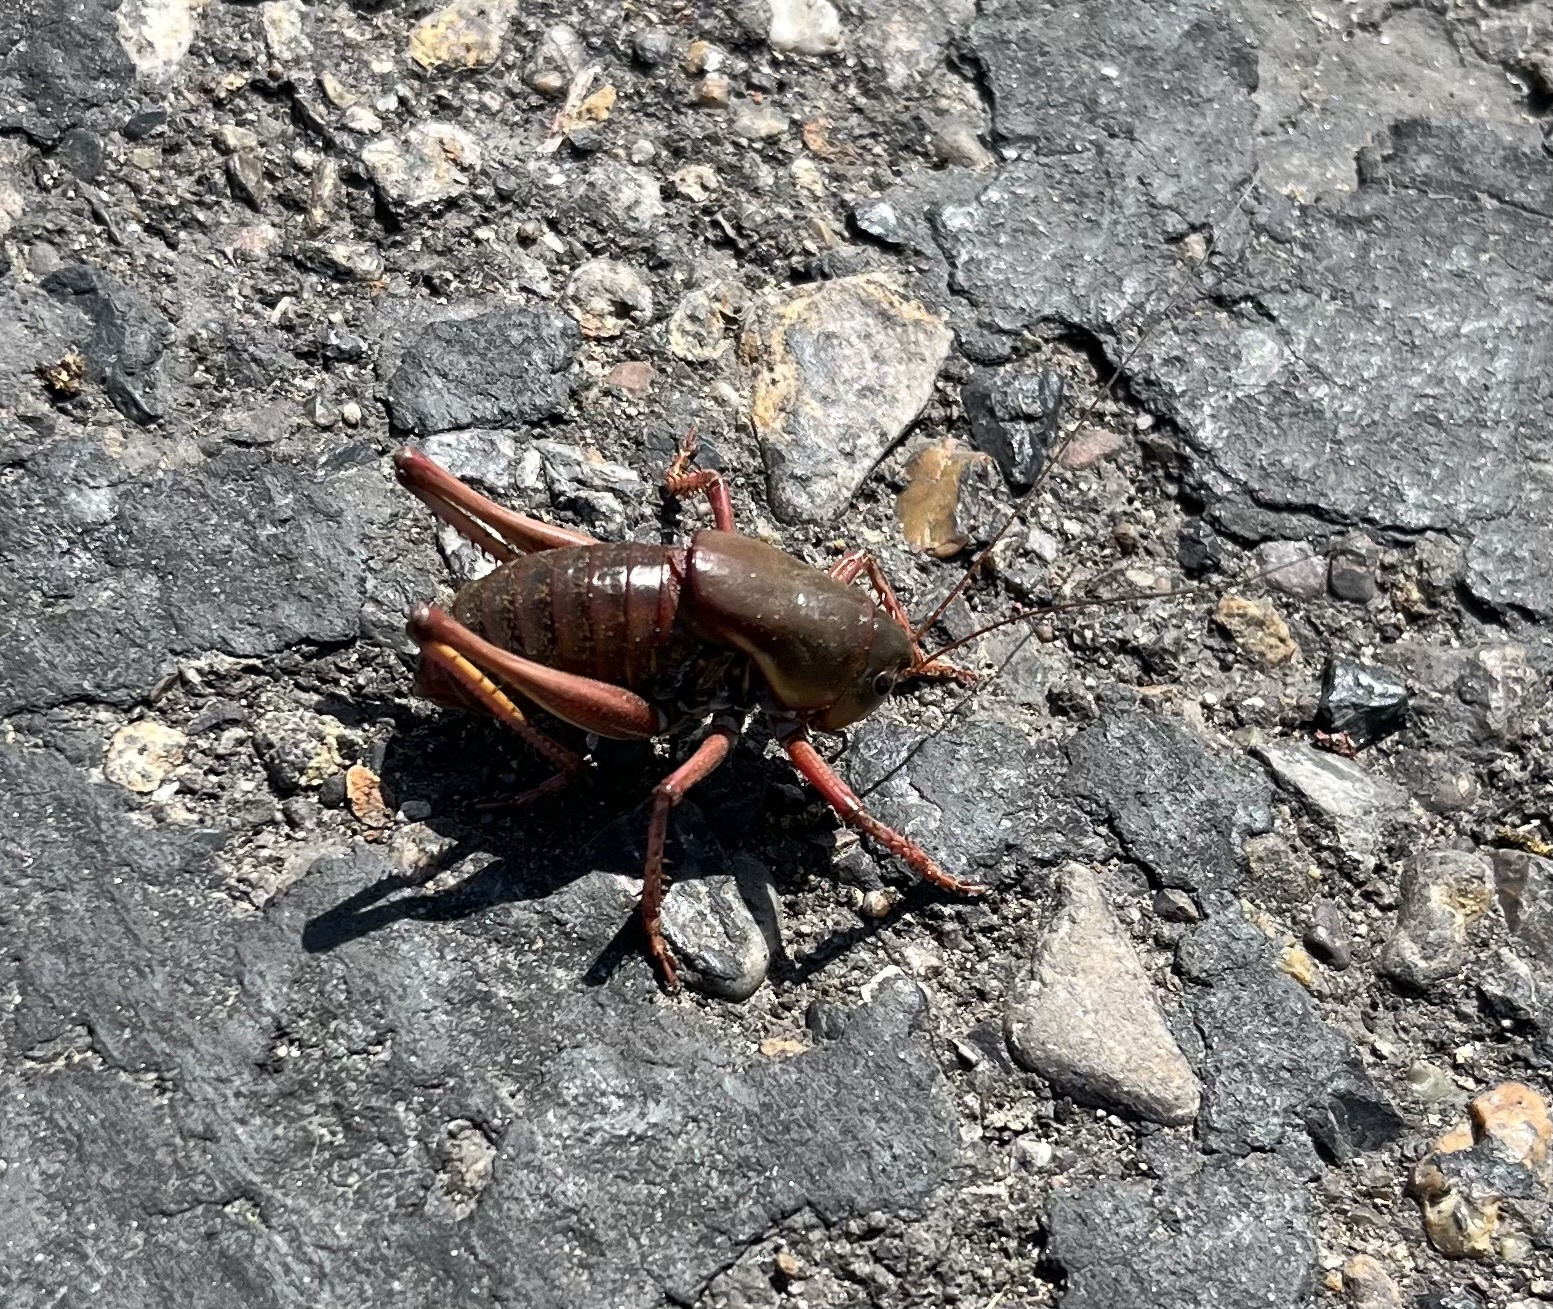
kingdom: Animalia
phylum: Arthropoda
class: Insecta
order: Orthoptera
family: Tettigoniidae
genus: Anabrus
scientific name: Anabrus simplex
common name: Mormon cricket
